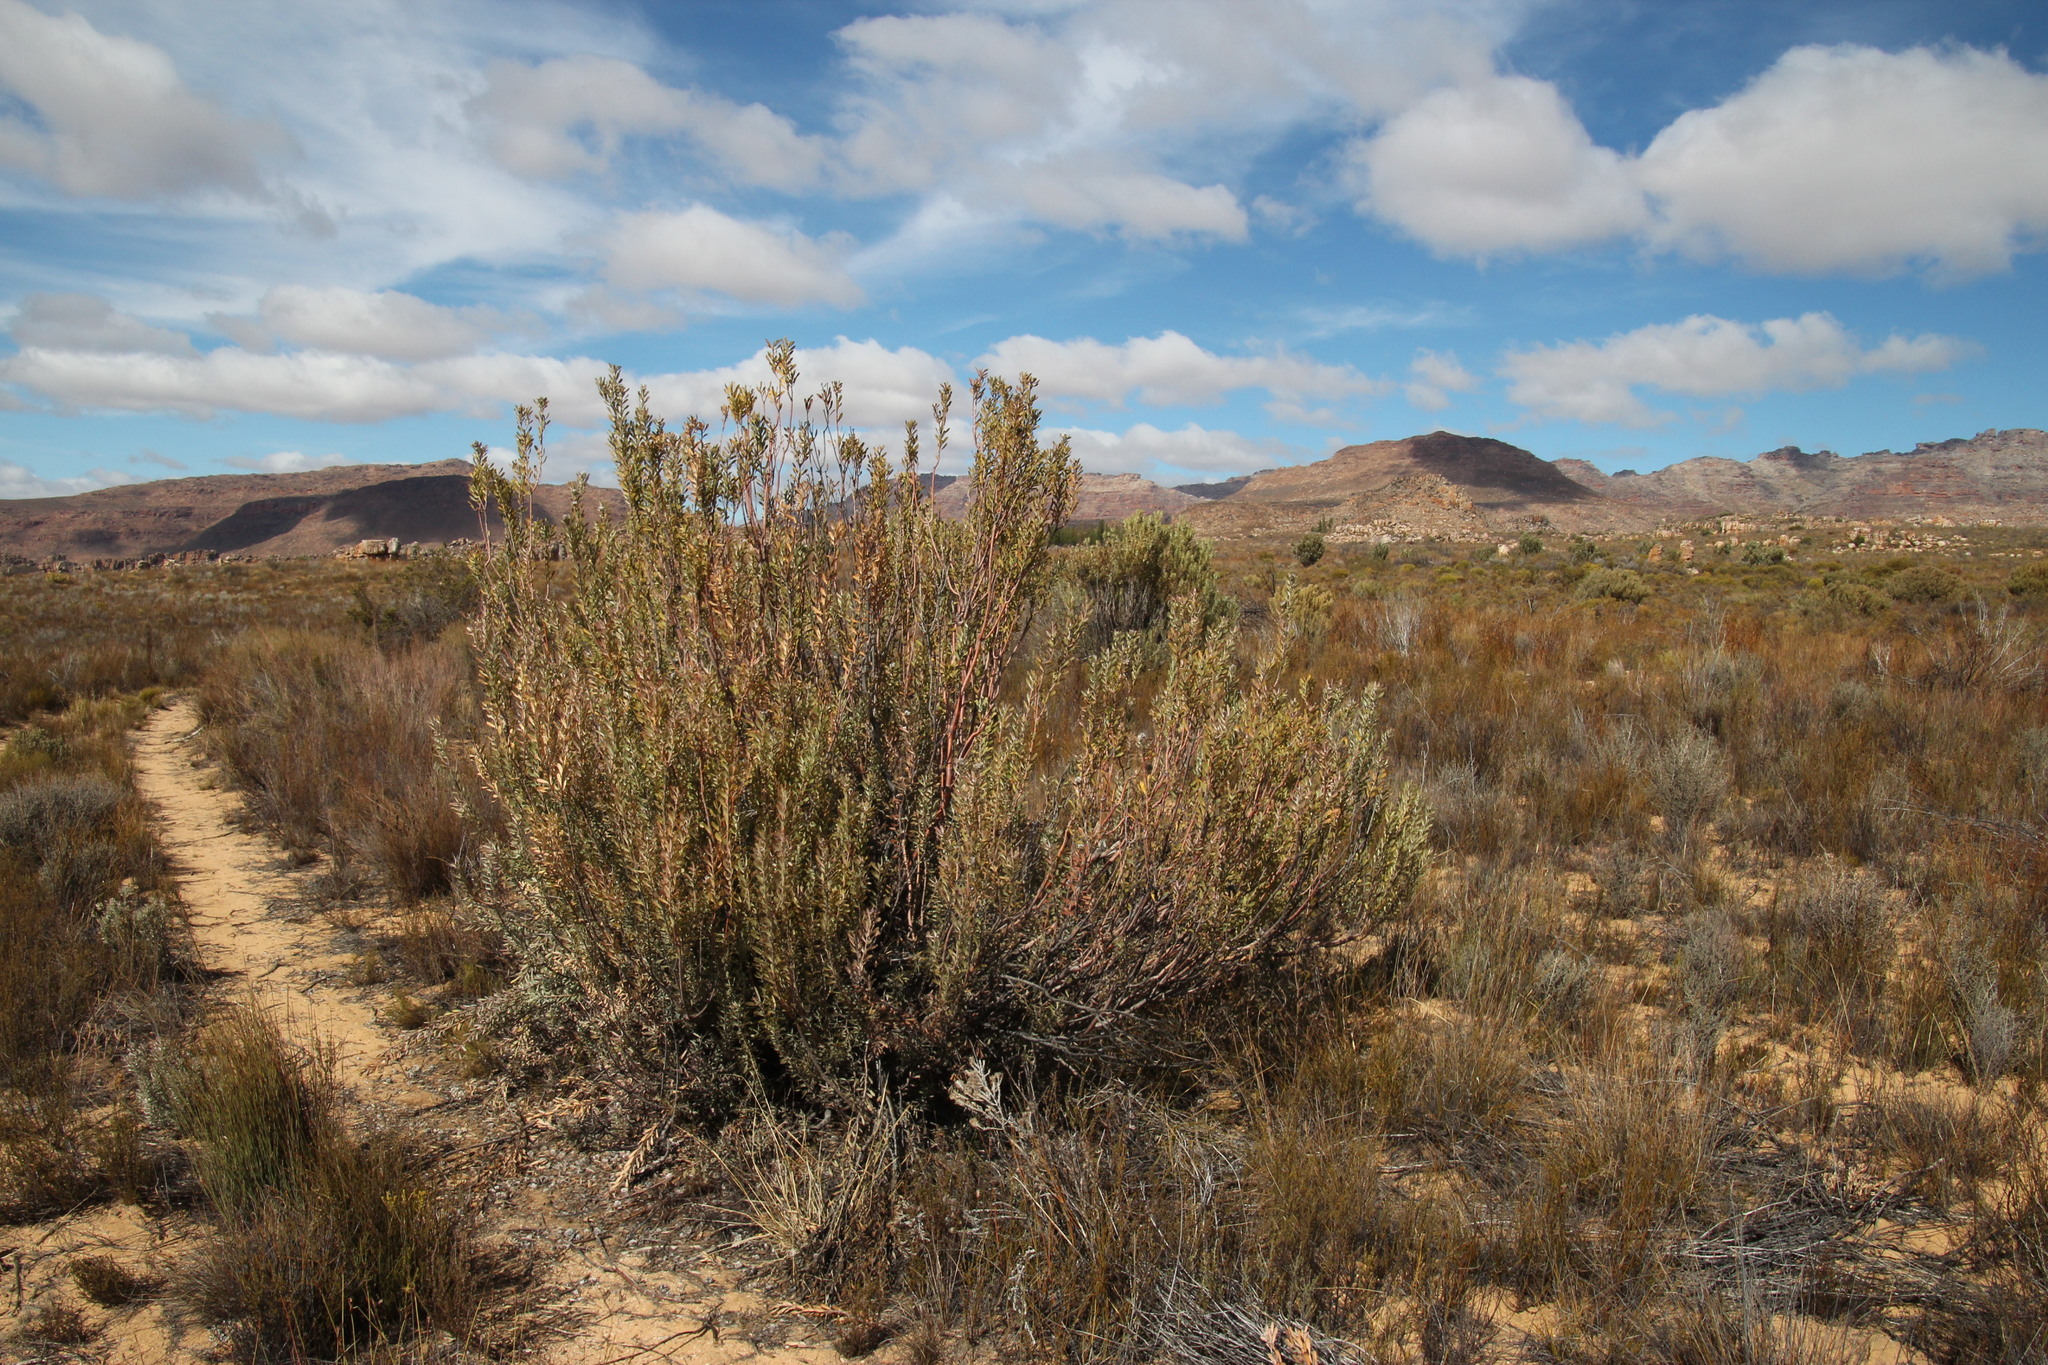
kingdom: Plantae
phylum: Tracheophyta
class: Magnoliopsida
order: Proteales
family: Proteaceae
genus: Leucadendron
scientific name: Leucadendron pubescens
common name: Grey conebush
